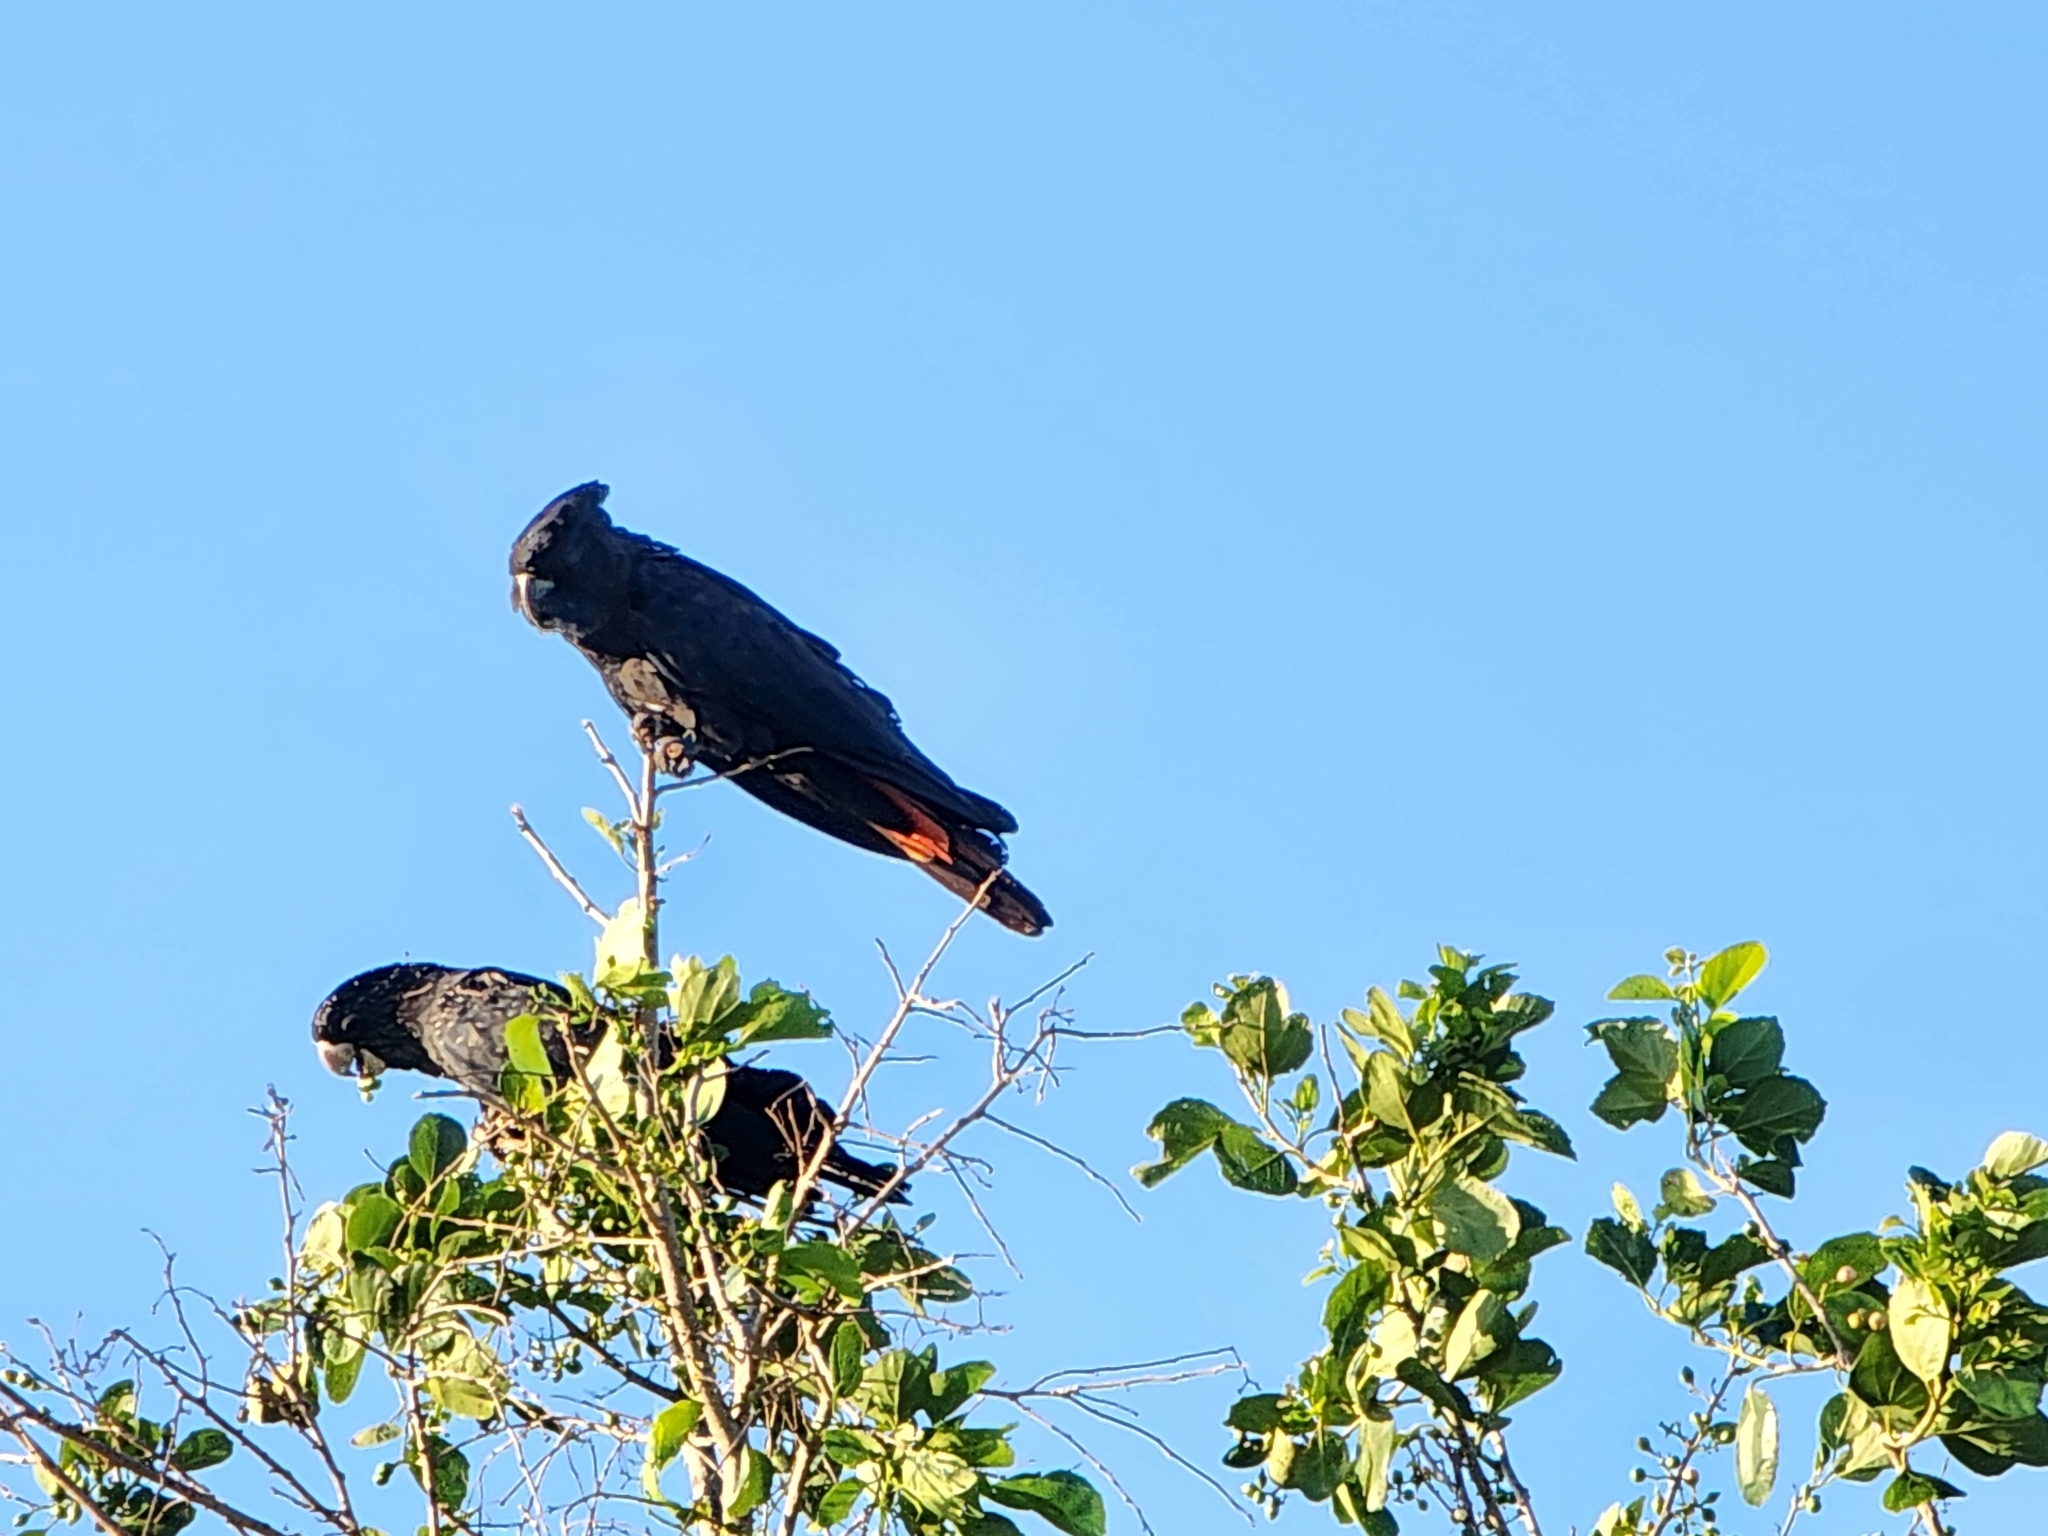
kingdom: Animalia
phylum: Chordata
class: Aves
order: Psittaciformes
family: Psittacidae
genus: Calyptorhynchus
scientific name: Calyptorhynchus banksii
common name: Red-tailed black cockatoo
